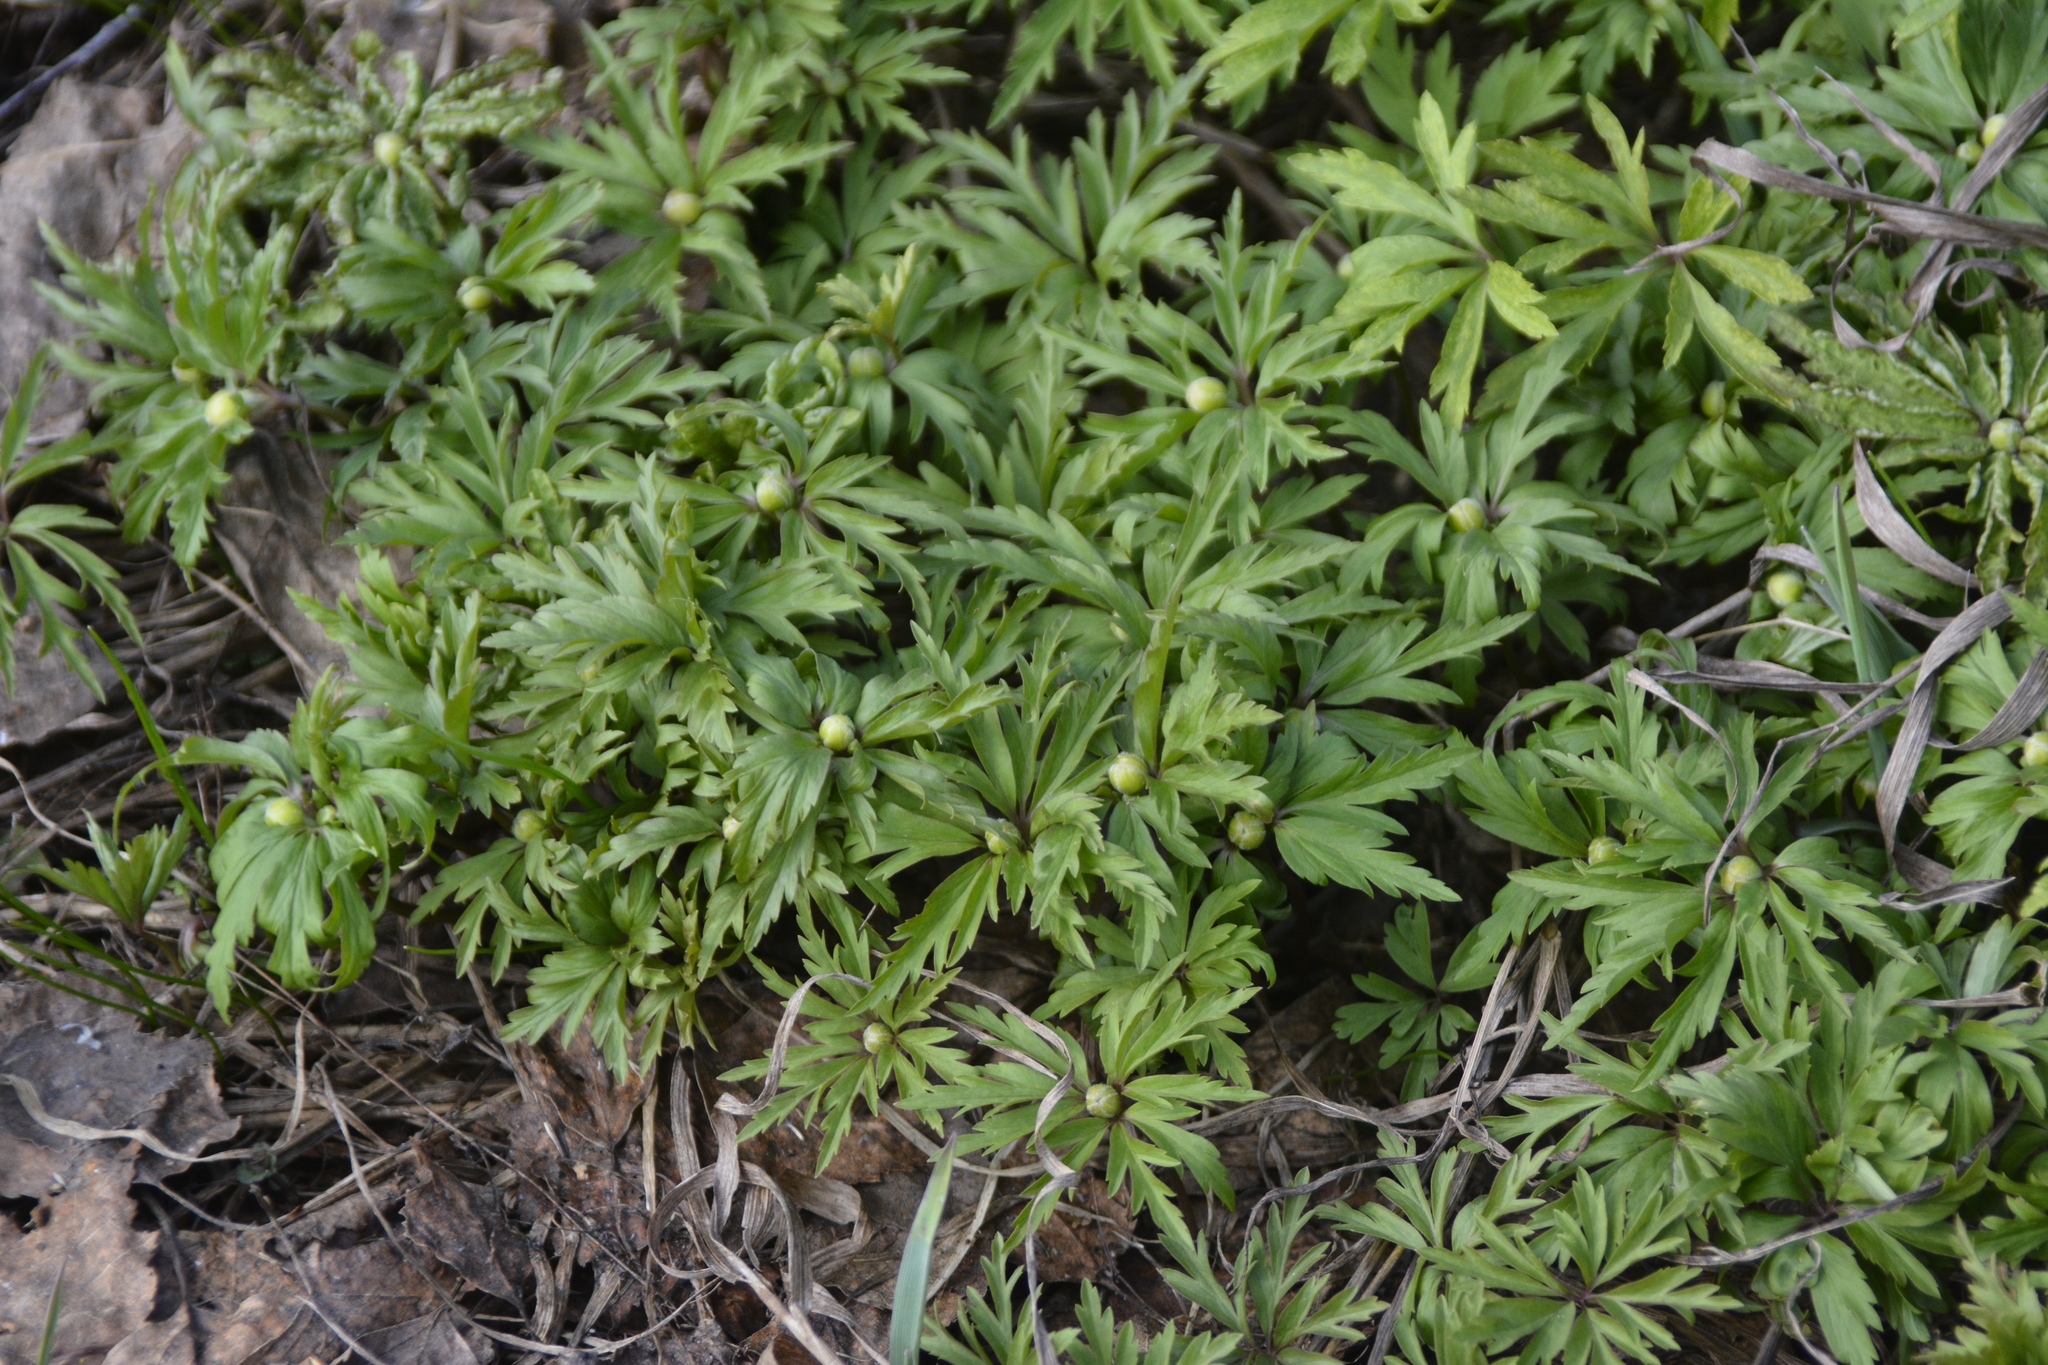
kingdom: Plantae
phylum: Tracheophyta
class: Magnoliopsida
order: Ranunculales
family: Ranunculaceae
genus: Anemone
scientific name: Anemone ranunculoides
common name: Yellow anemone
